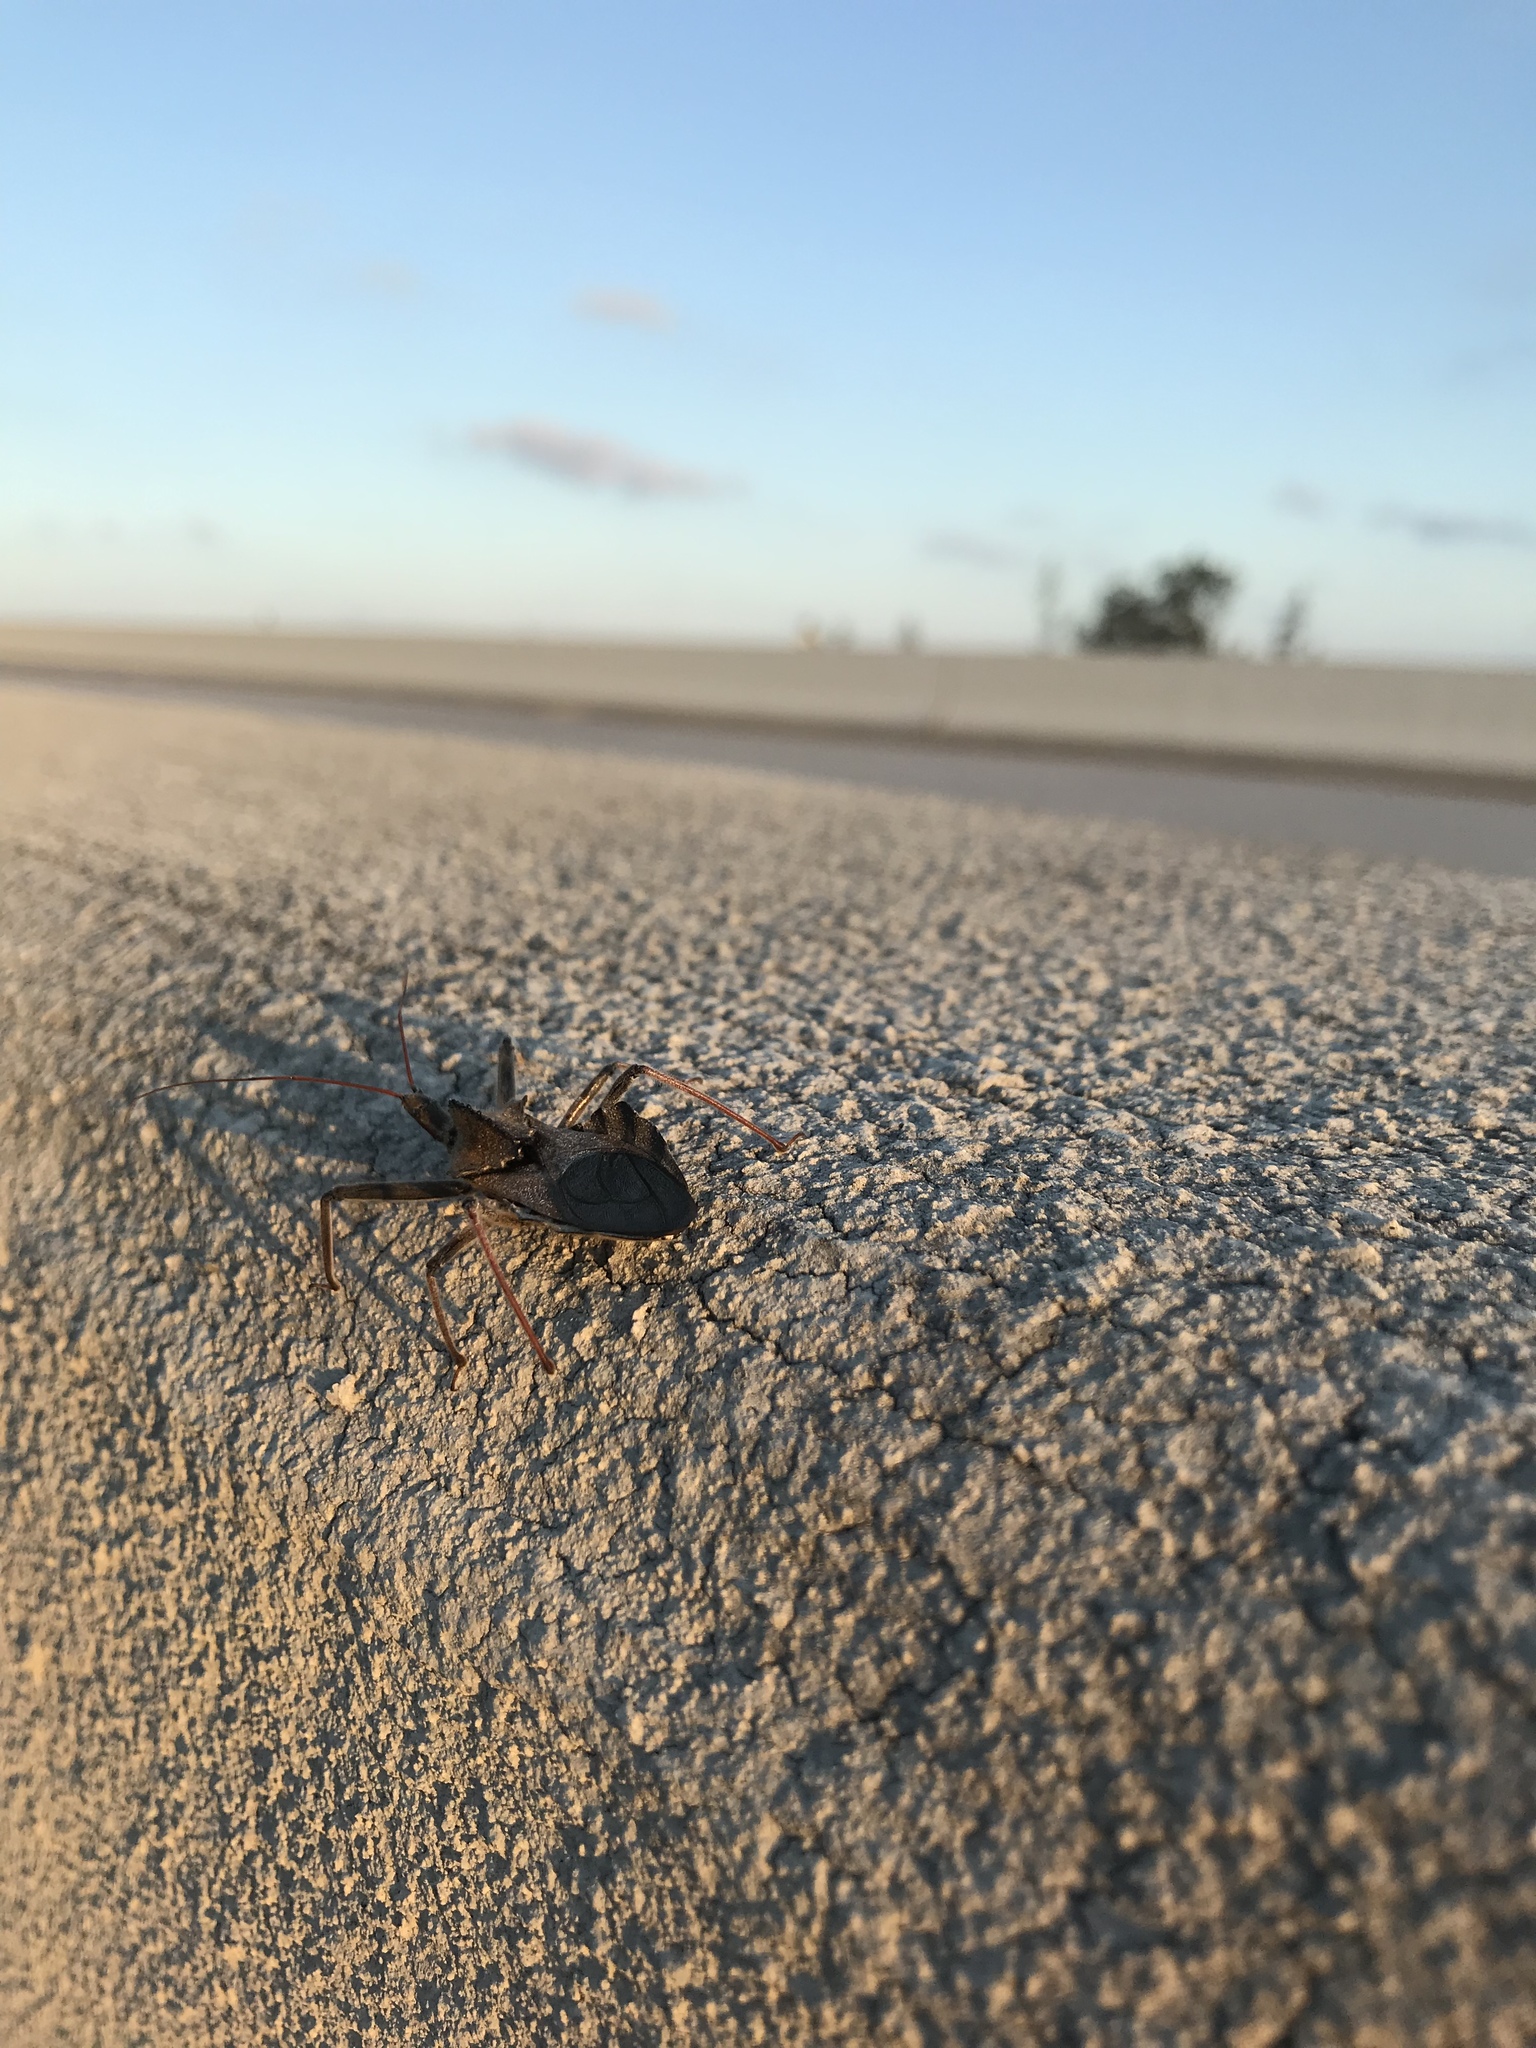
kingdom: Animalia
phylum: Arthropoda
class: Insecta
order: Hemiptera
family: Reduviidae
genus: Arilus
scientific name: Arilus cristatus
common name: North american wheel bug
